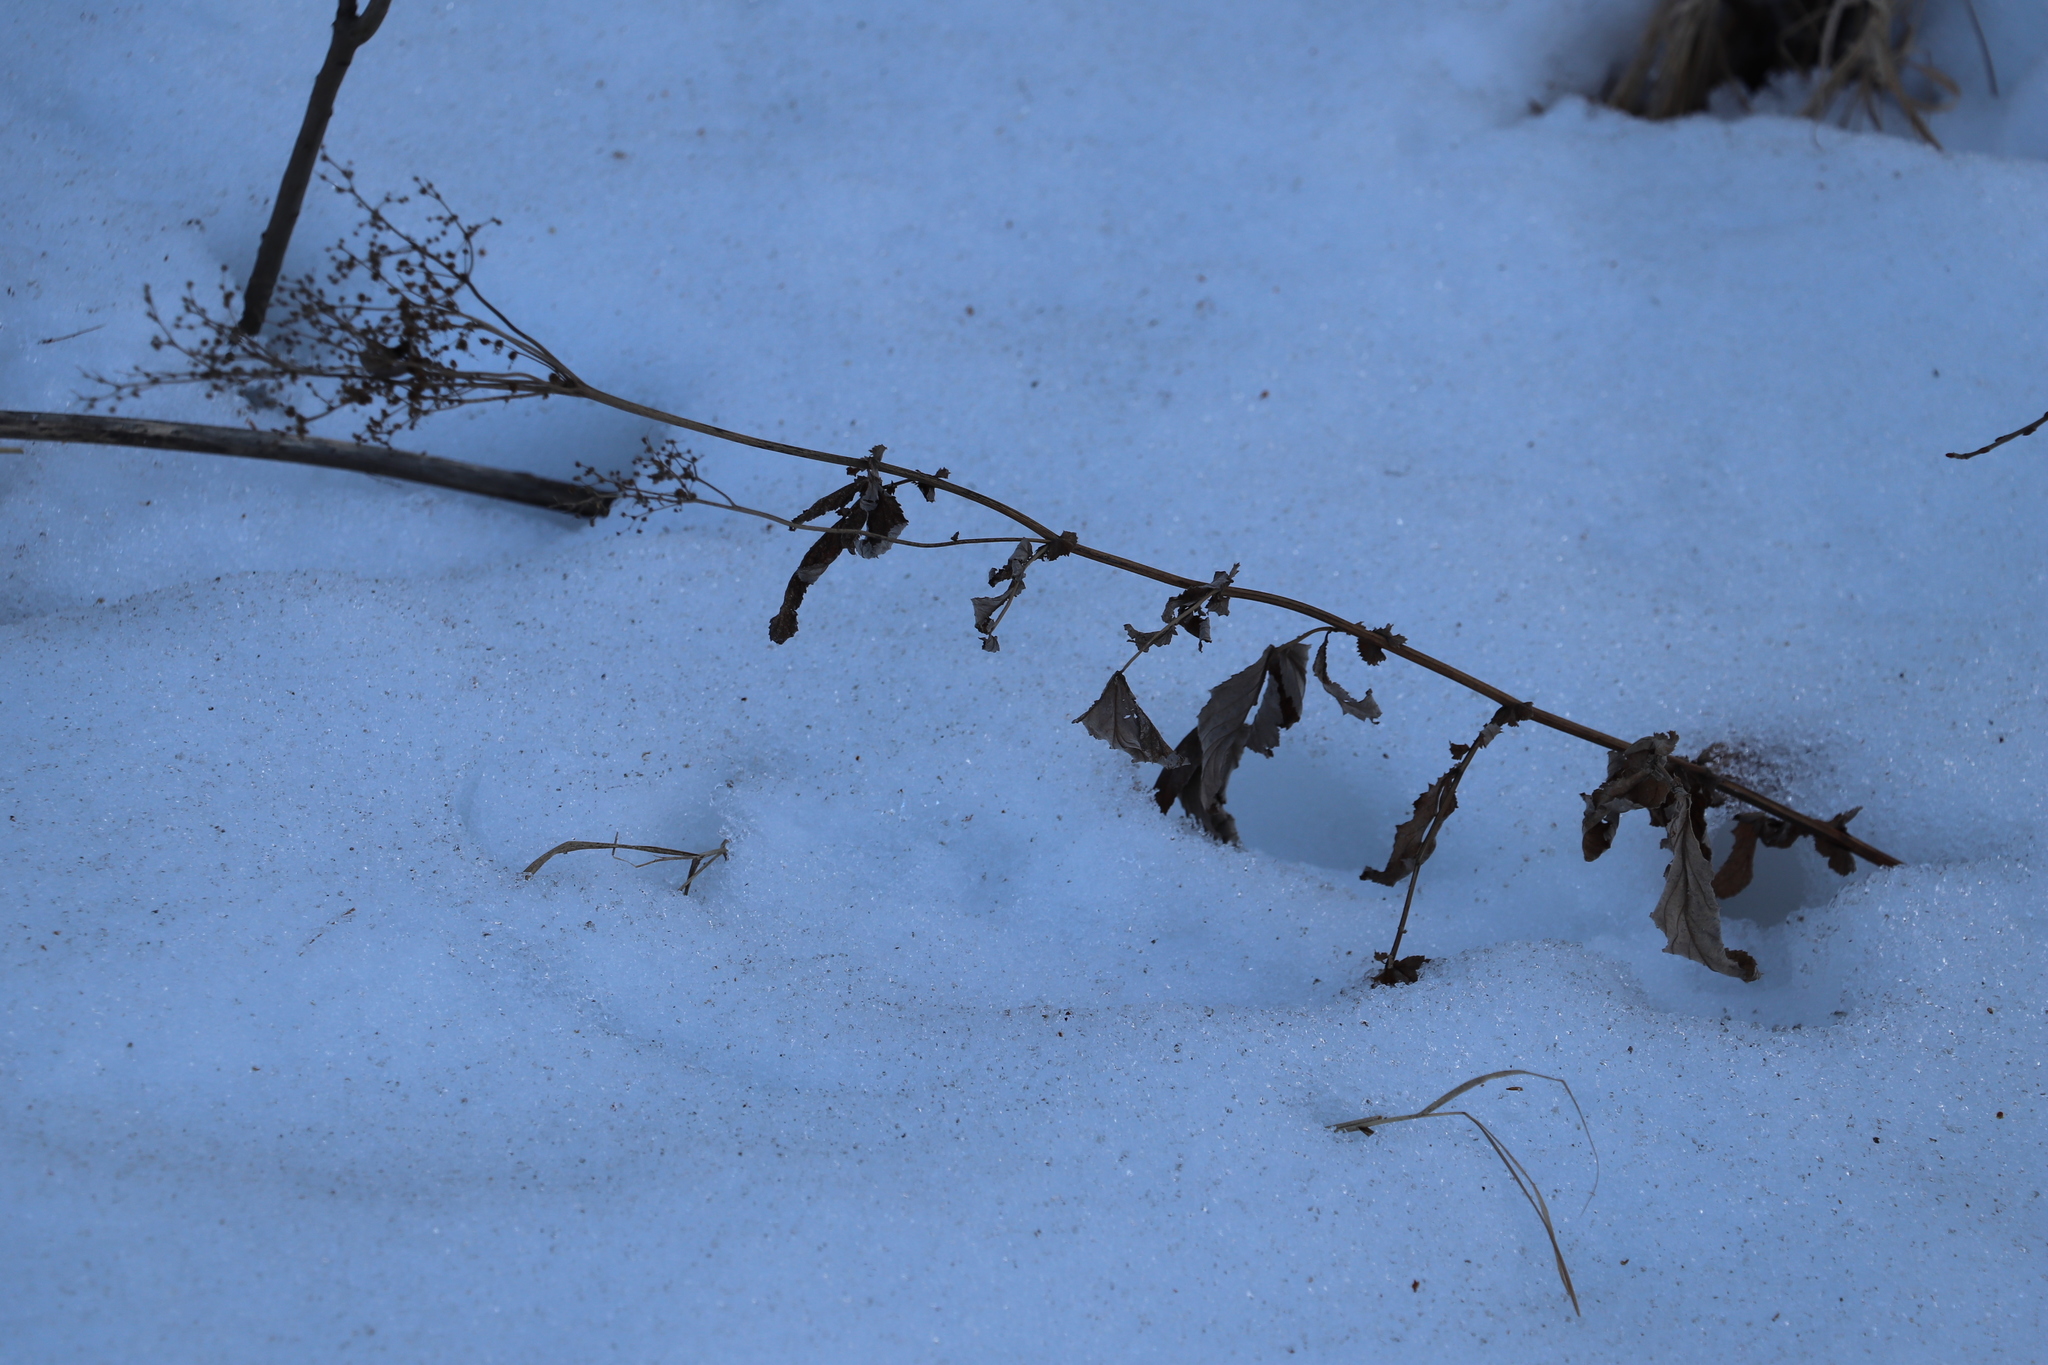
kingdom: Plantae
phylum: Tracheophyta
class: Magnoliopsida
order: Rosales
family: Rosaceae
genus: Filipendula
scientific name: Filipendula ulmaria
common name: Meadowsweet
